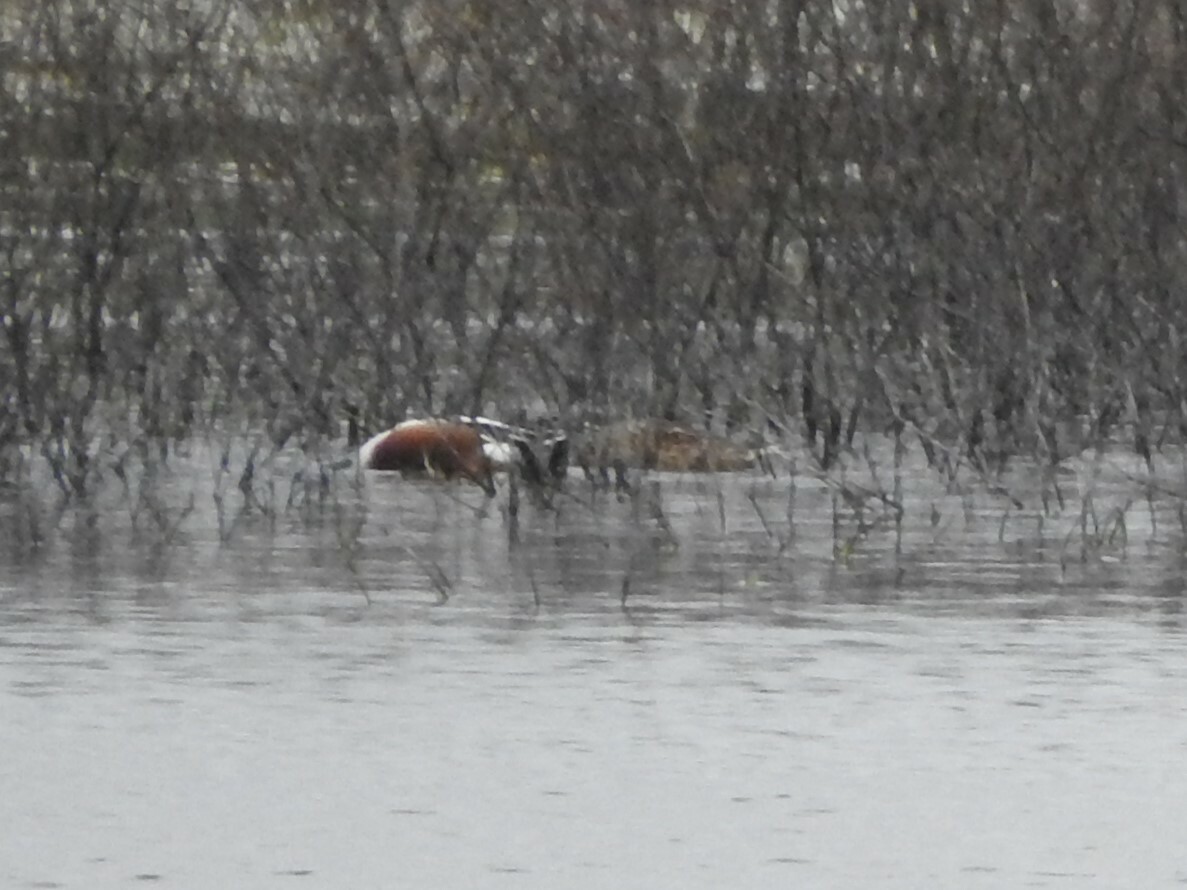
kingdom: Animalia
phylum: Chordata
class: Aves
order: Anseriformes
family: Anatidae
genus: Spatula
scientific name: Spatula clypeata
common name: Northern shoveler
